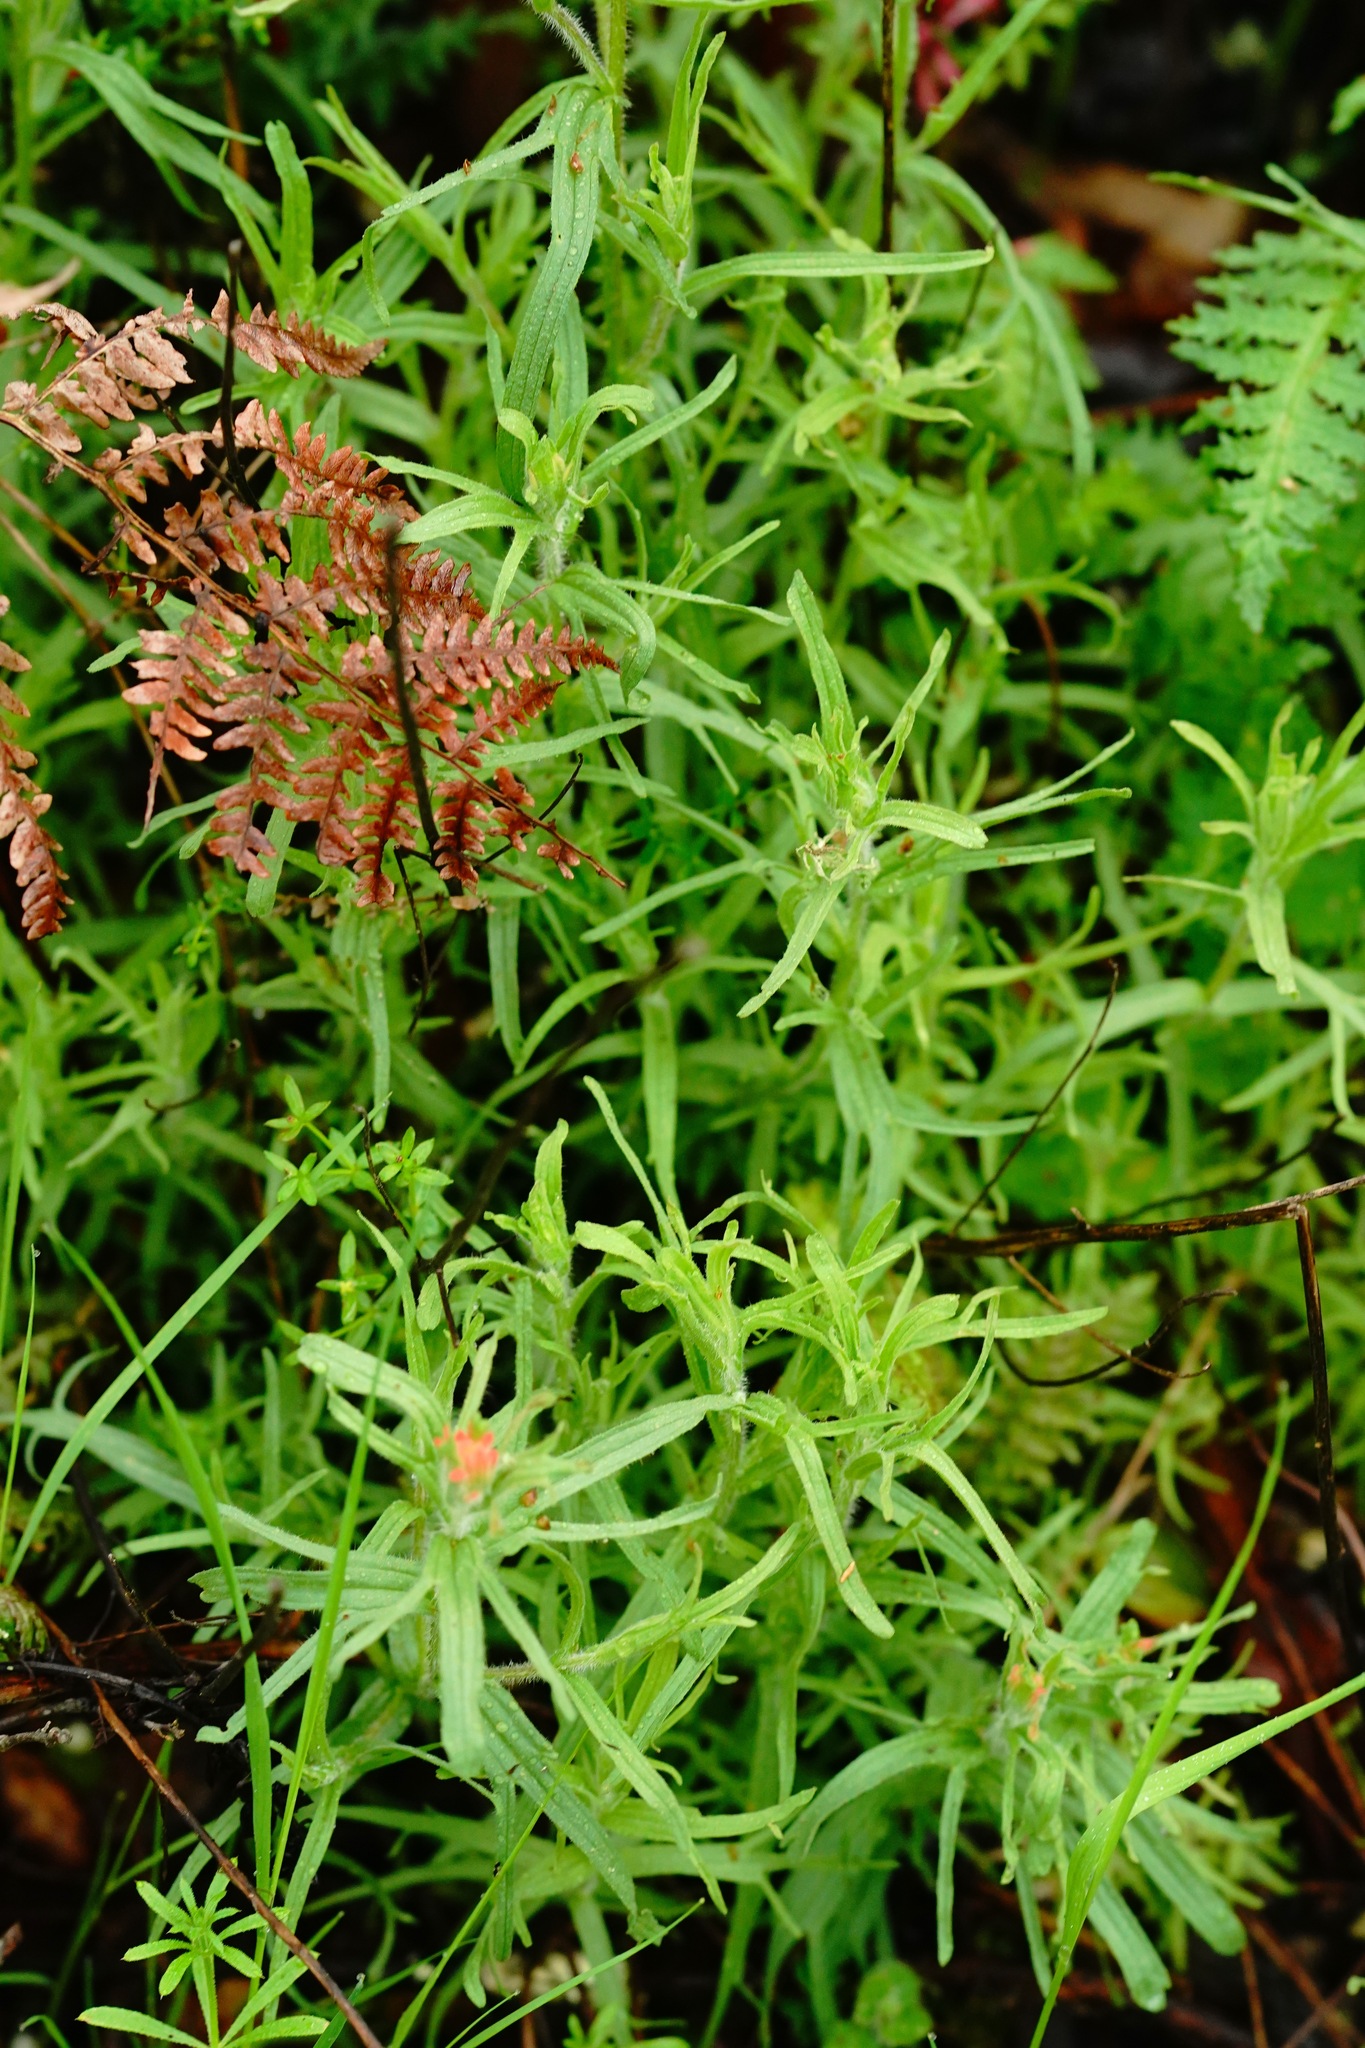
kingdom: Plantae
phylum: Tracheophyta
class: Magnoliopsida
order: Lamiales
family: Orobanchaceae
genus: Castilleja
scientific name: Castilleja affinis
